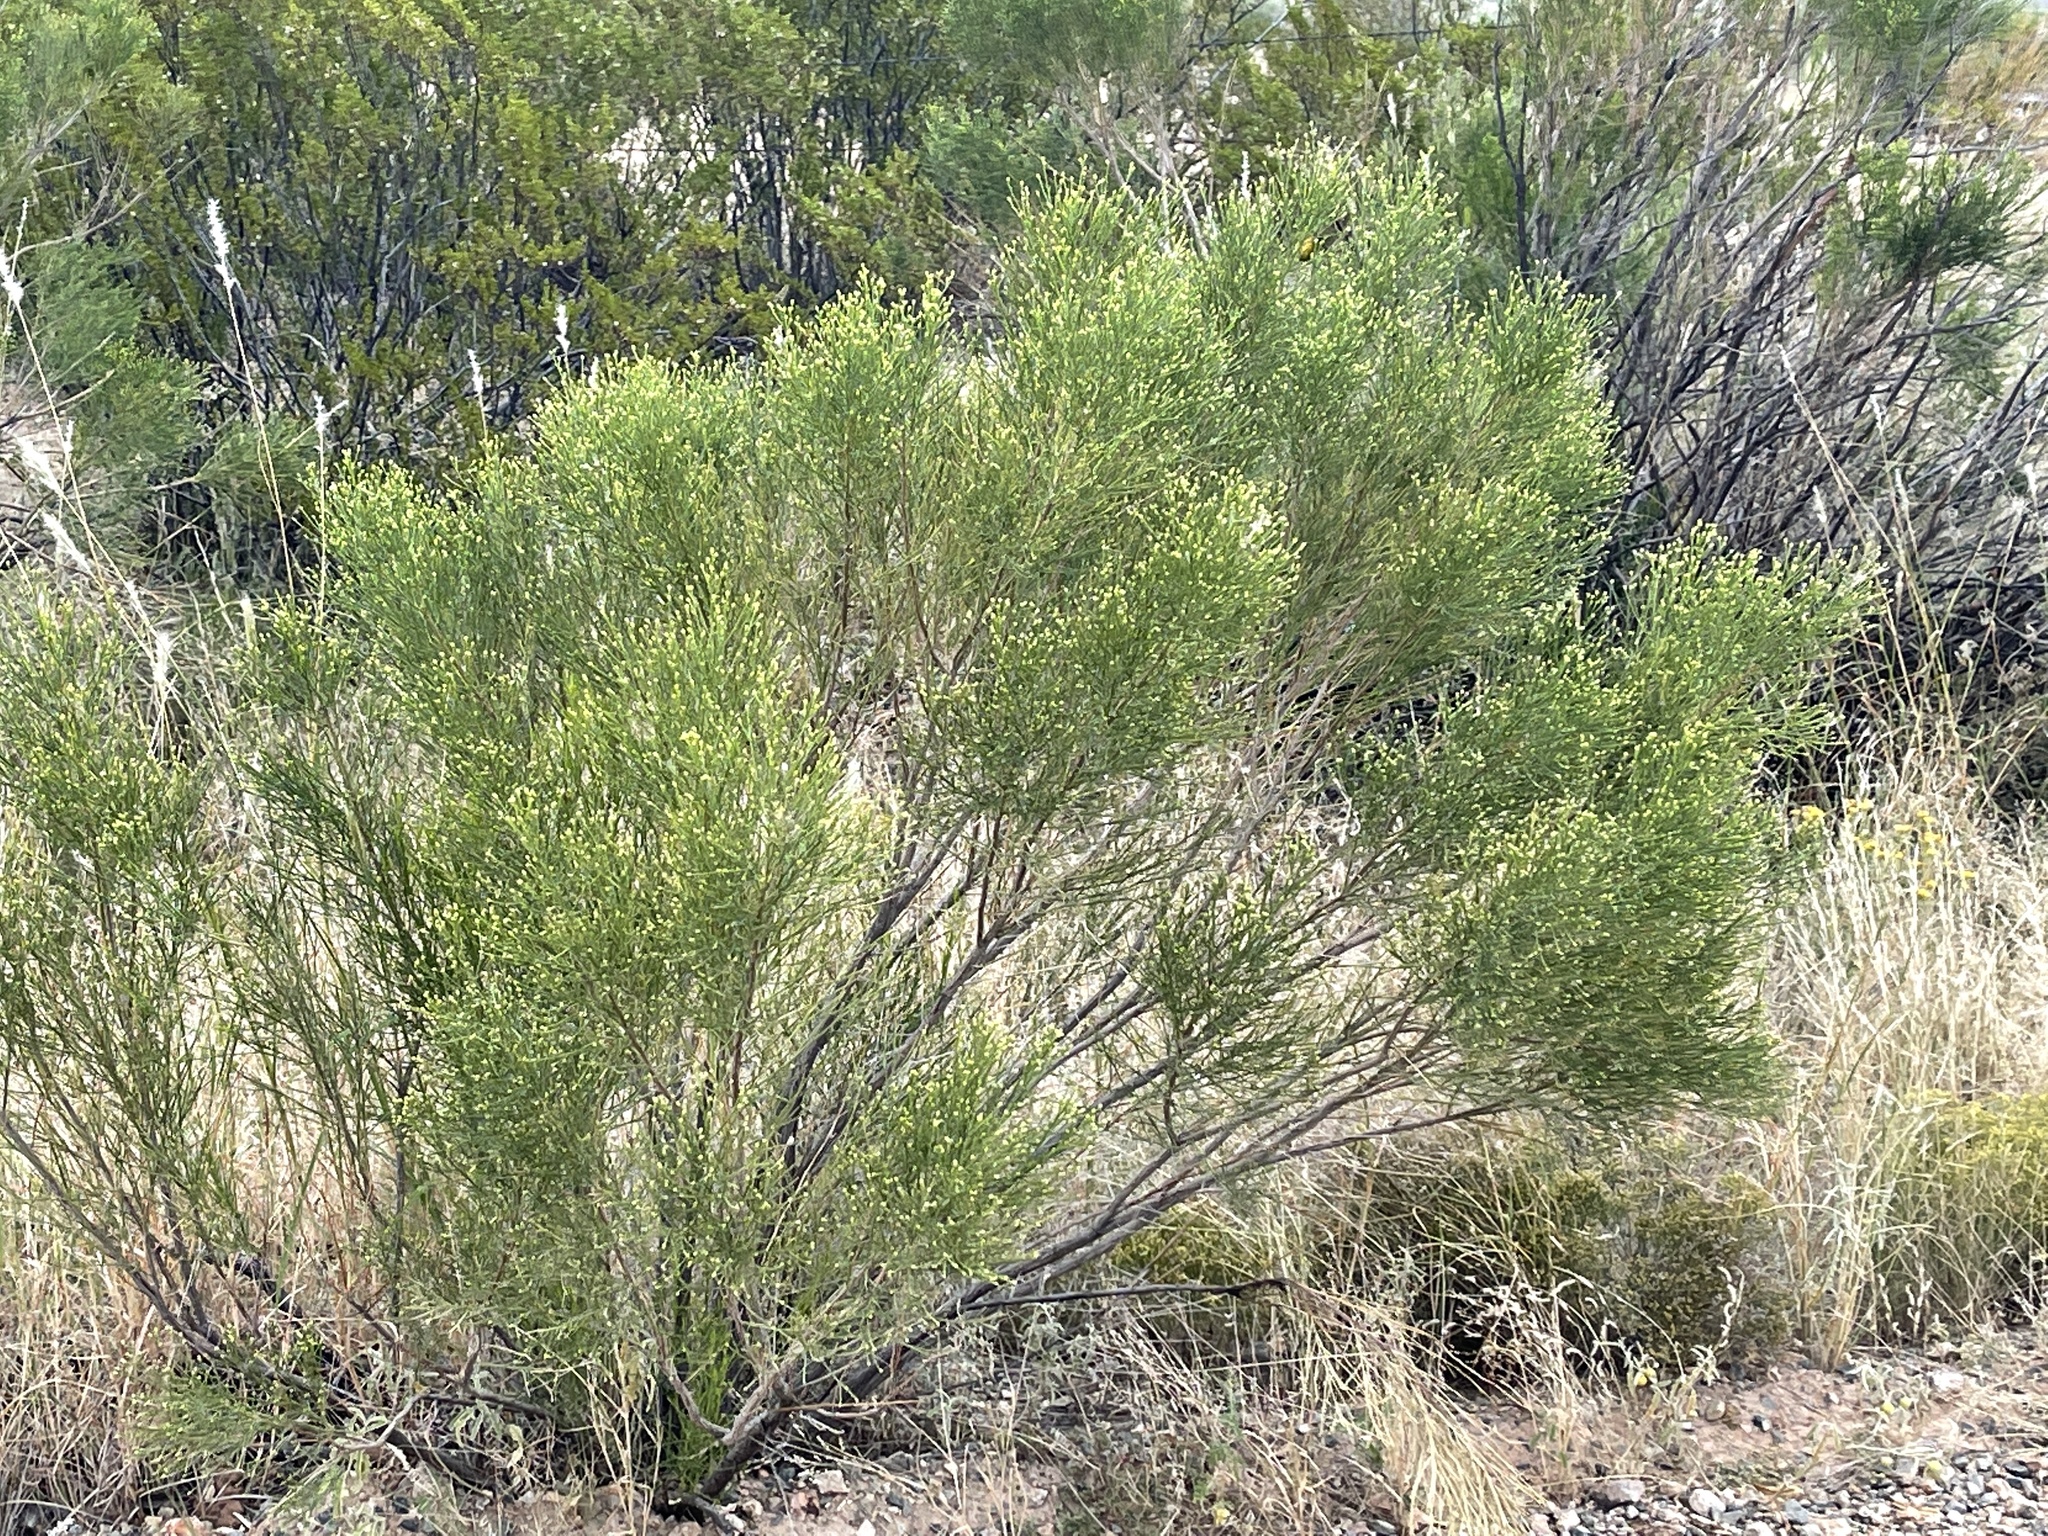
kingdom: Plantae
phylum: Tracheophyta
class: Magnoliopsida
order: Asterales
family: Asteraceae
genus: Baccharis
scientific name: Baccharis sarothroides
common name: Desert-broom
